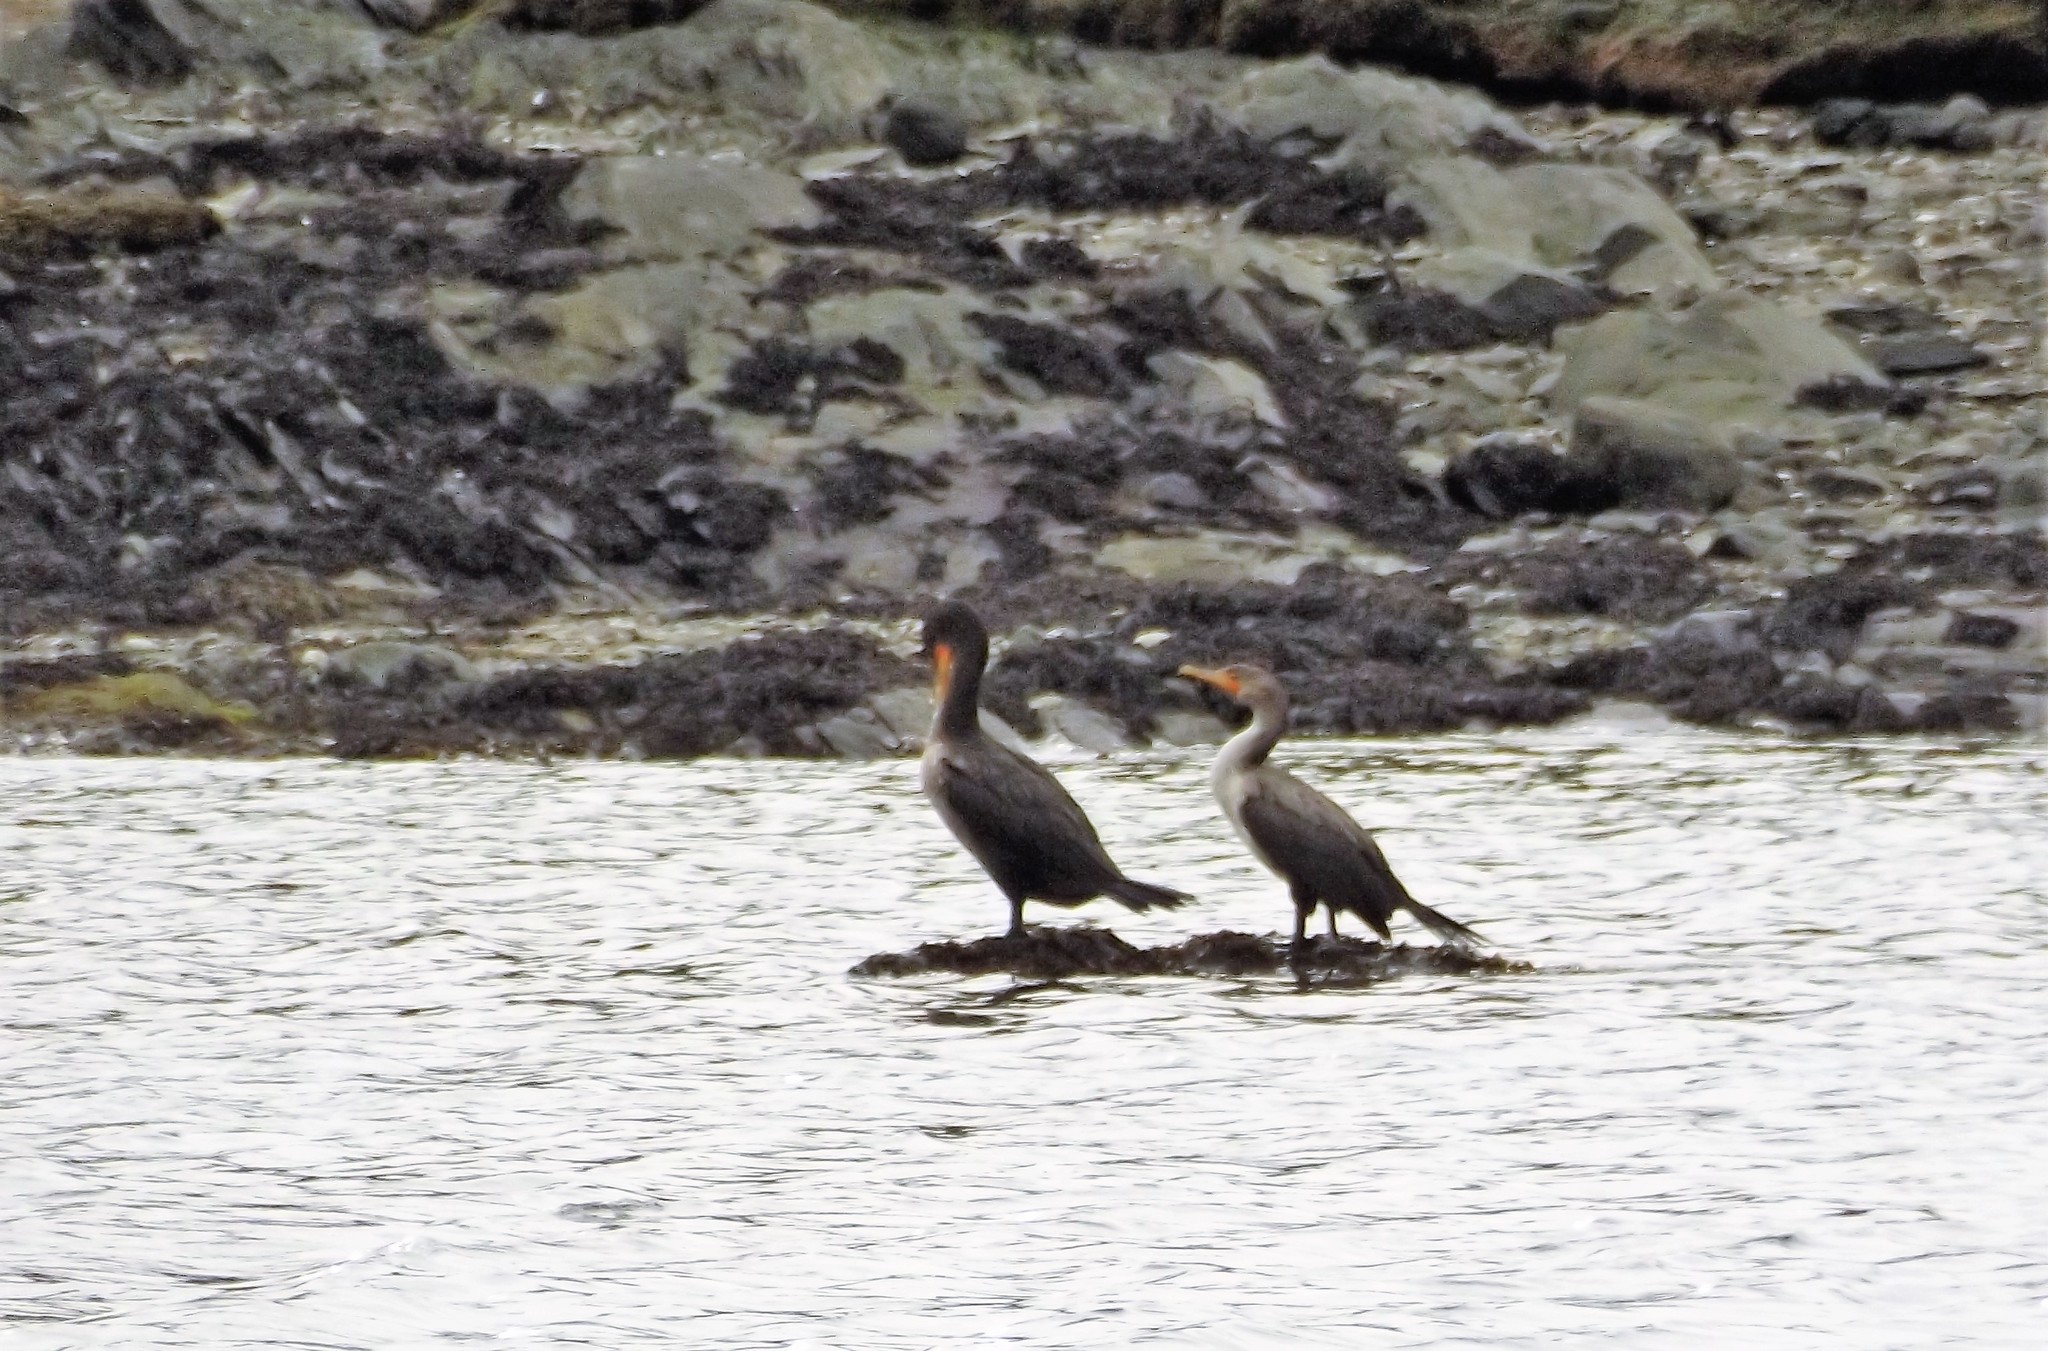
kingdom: Animalia
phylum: Chordata
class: Aves
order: Suliformes
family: Phalacrocoracidae
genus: Phalacrocorax
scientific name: Phalacrocorax auritus
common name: Double-crested cormorant
